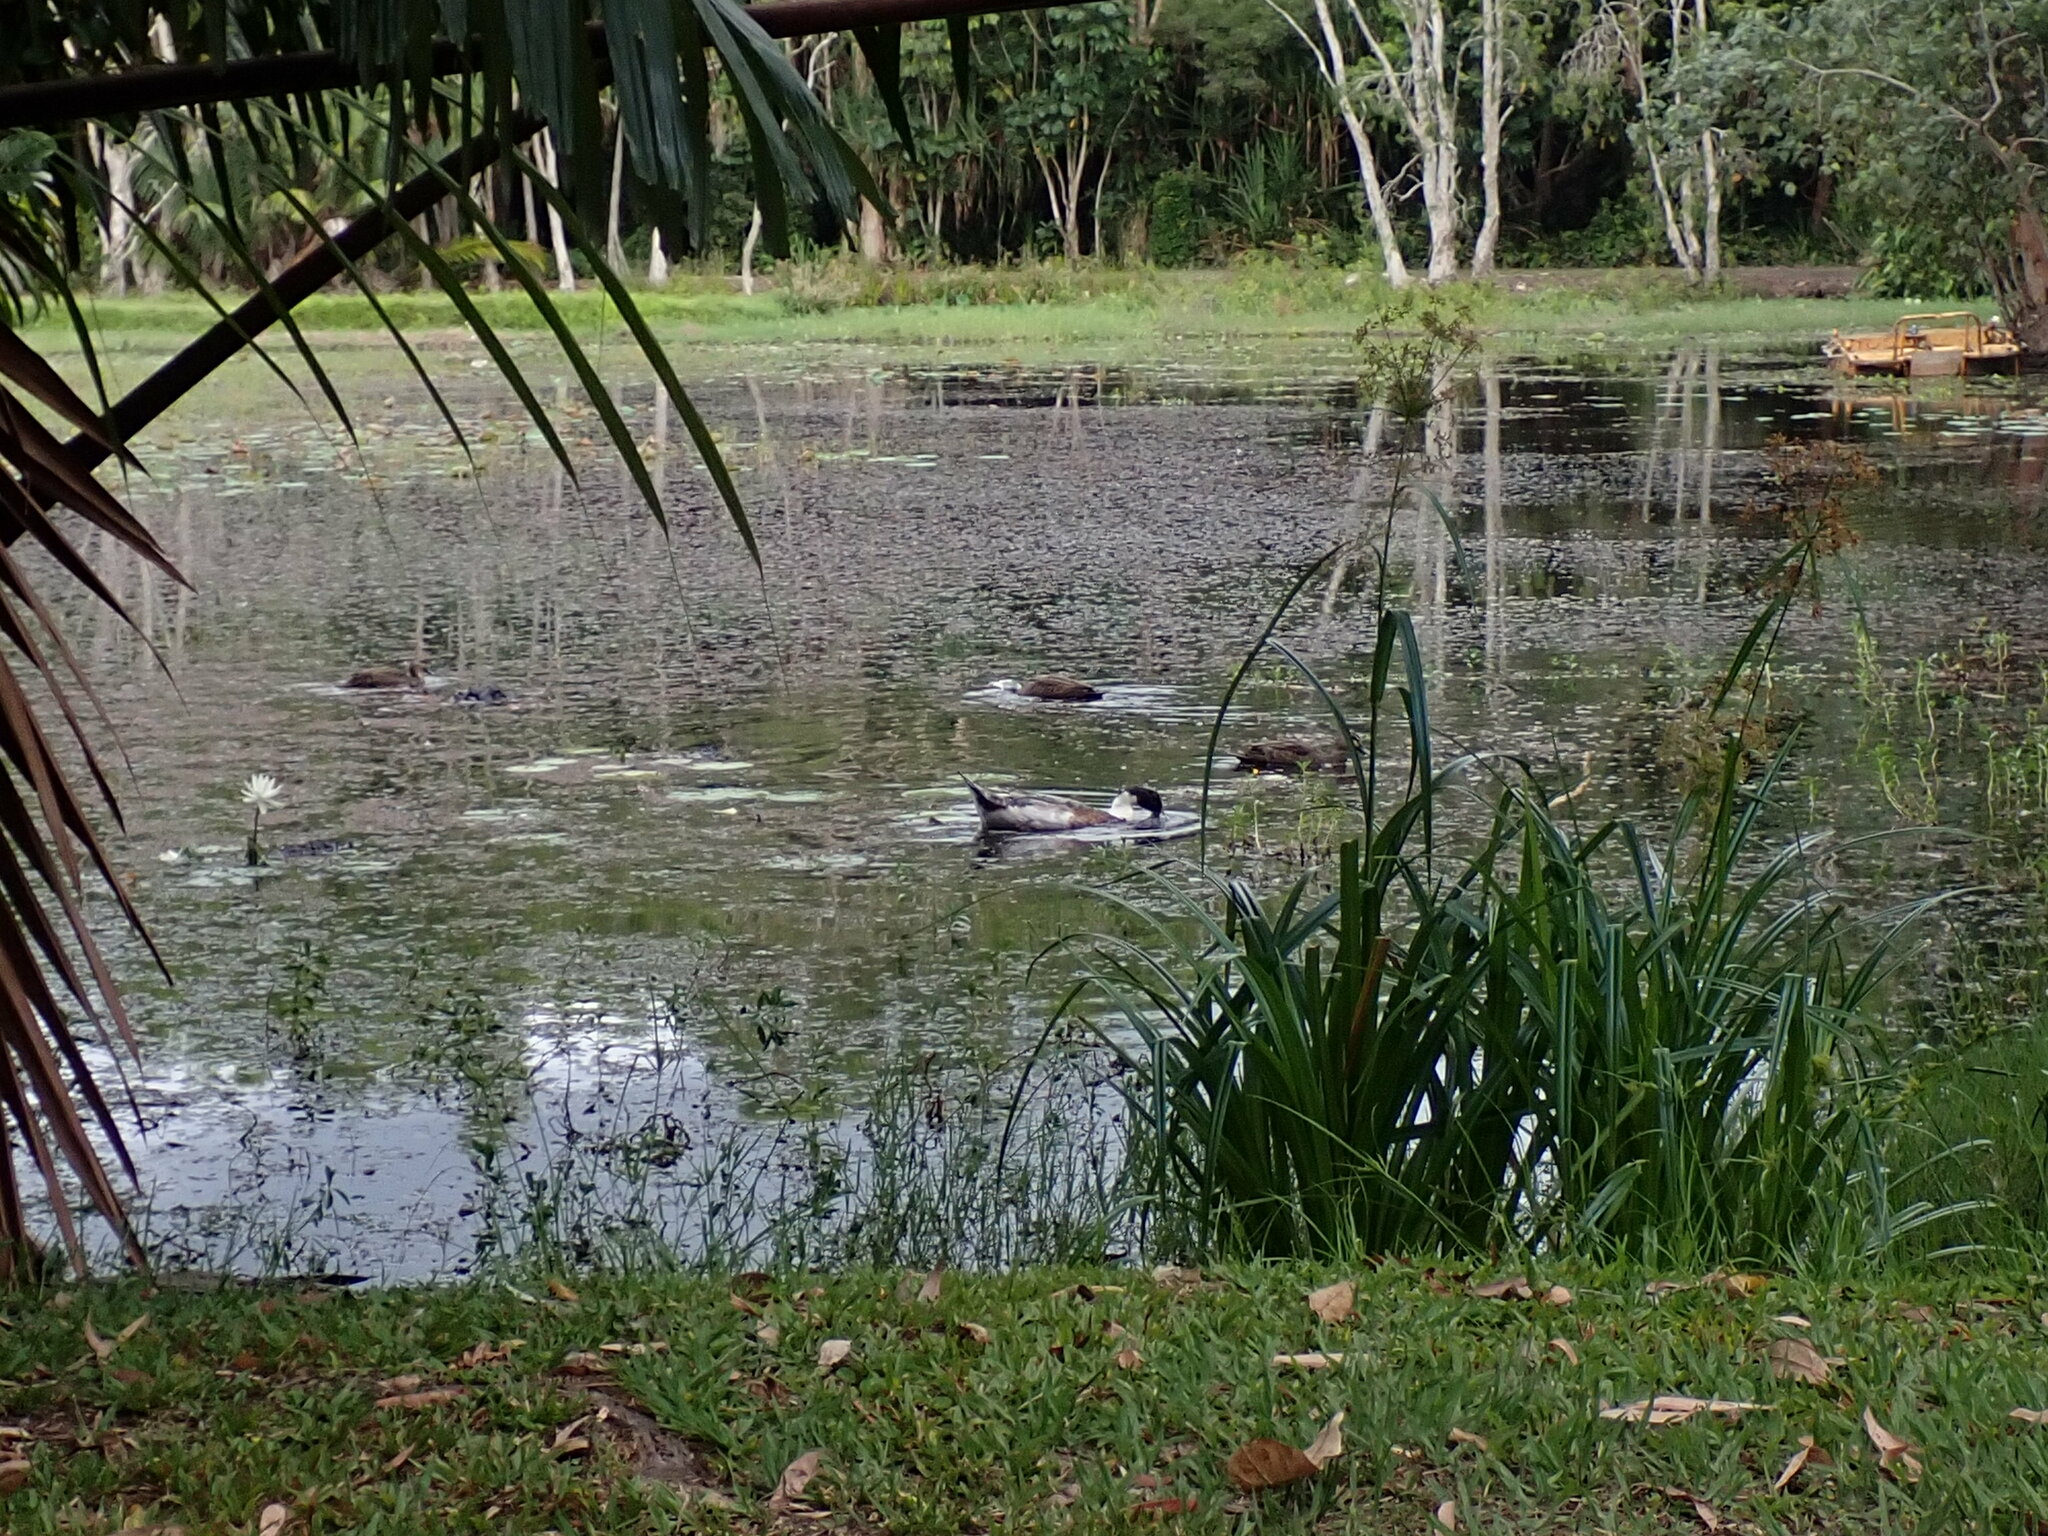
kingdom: Animalia
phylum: Chordata
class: Aves
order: Anseriformes
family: Anatidae
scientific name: Anatidae
